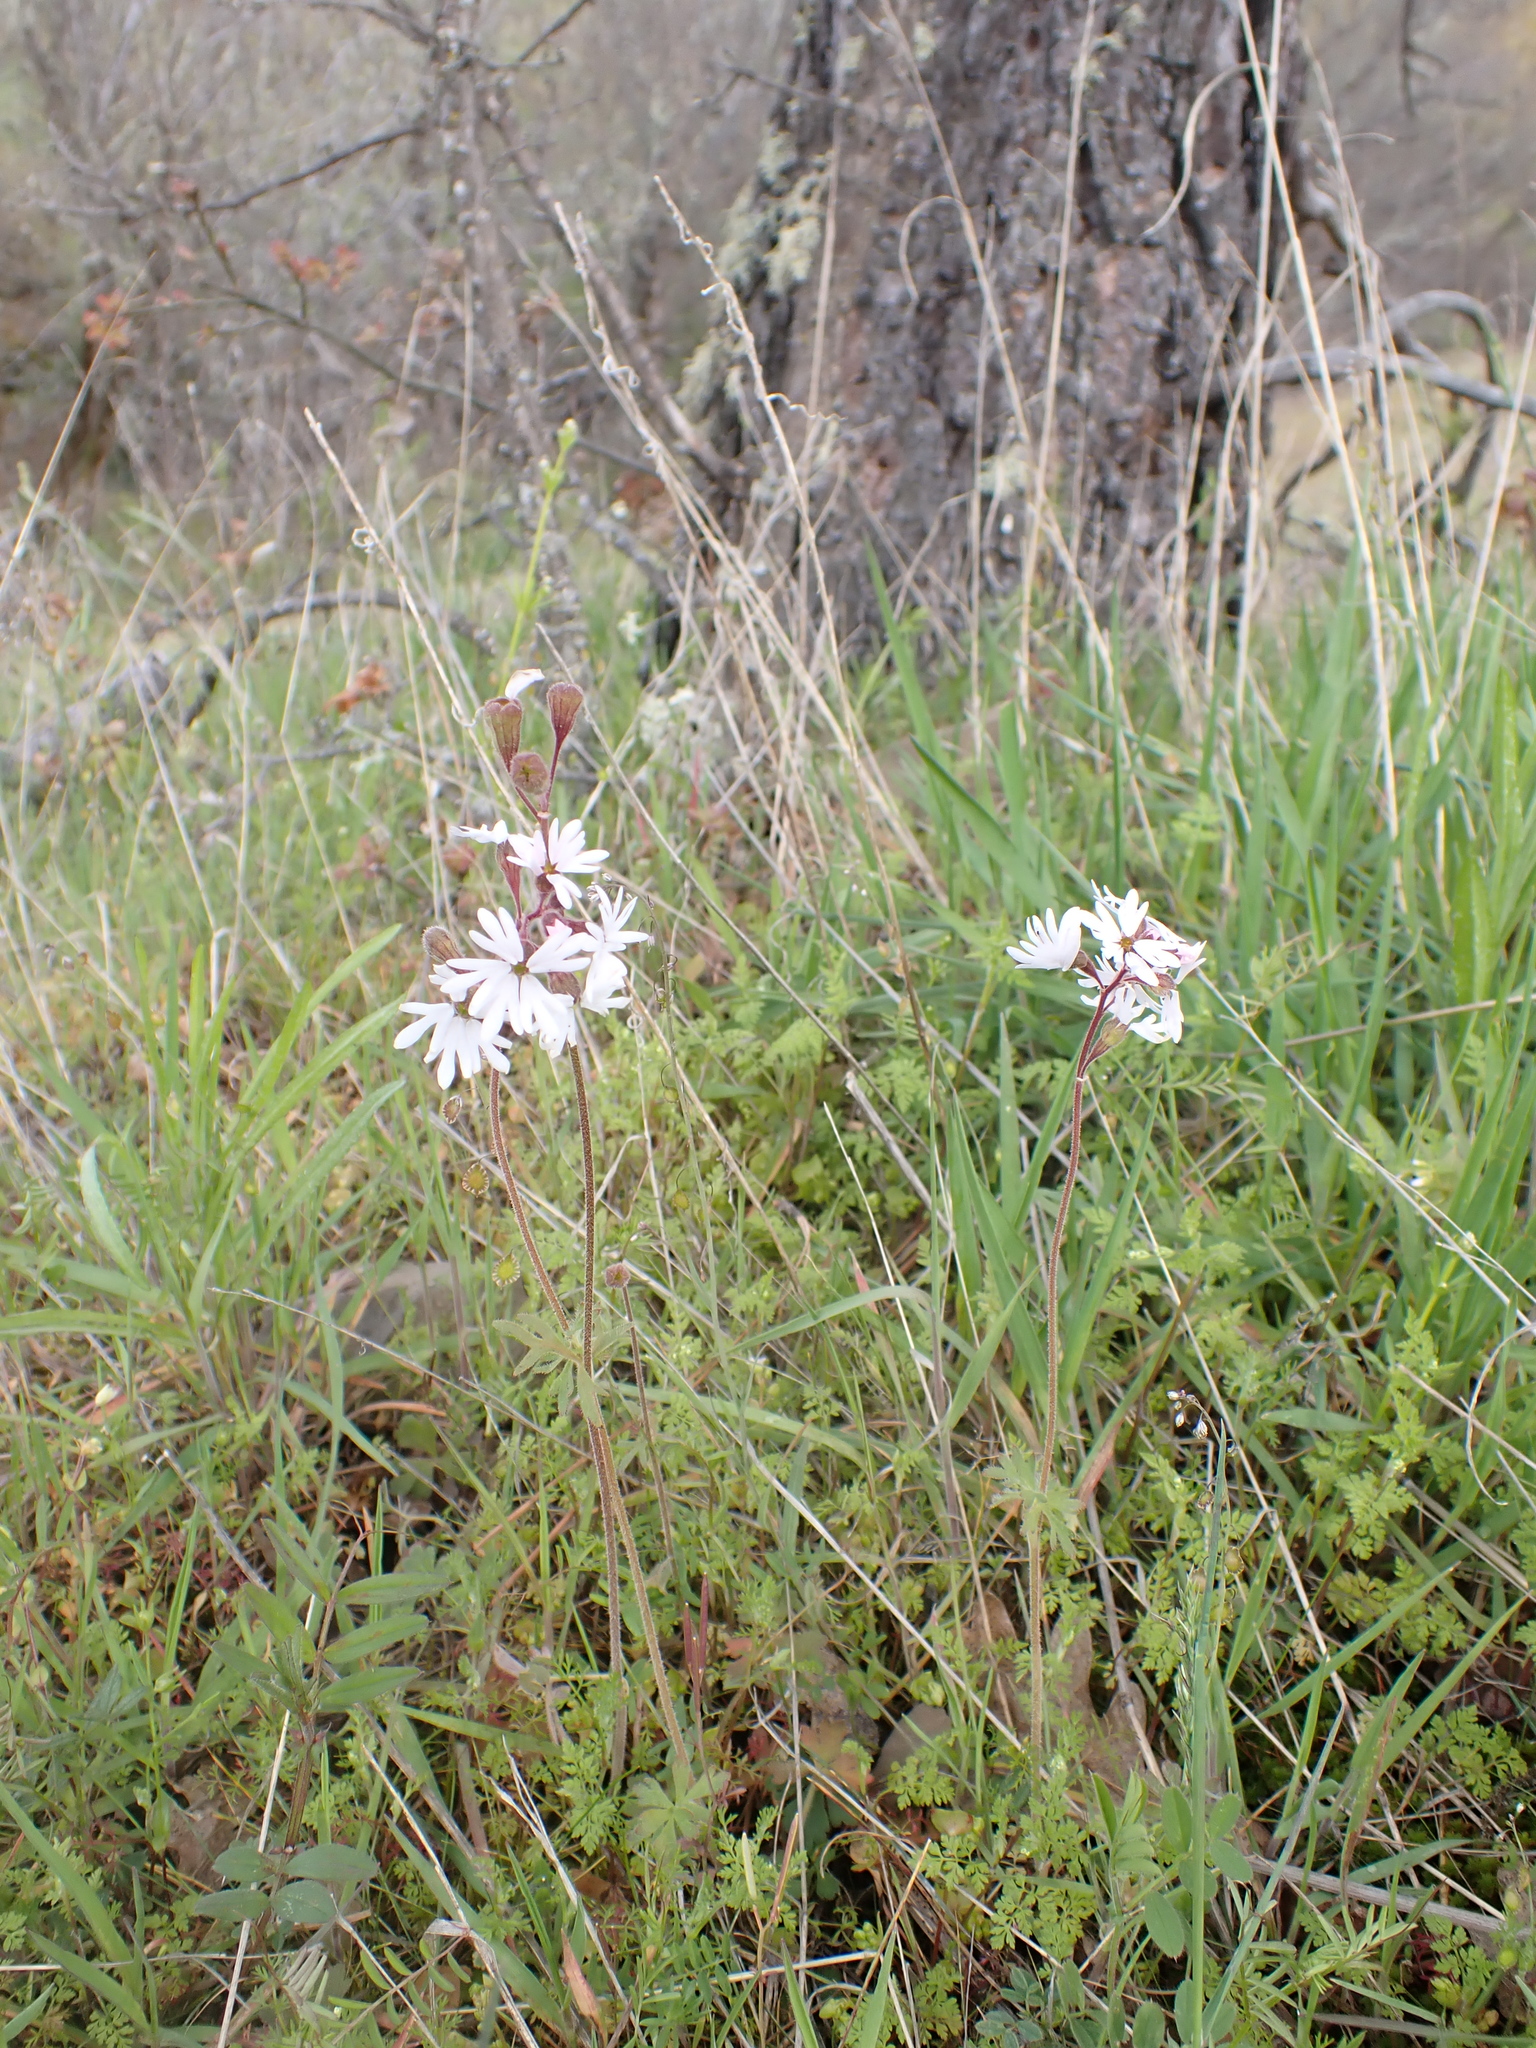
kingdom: Plantae
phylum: Tracheophyta
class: Magnoliopsida
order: Saxifragales
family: Saxifragaceae
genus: Lithophragma
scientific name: Lithophragma parviflorum
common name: Small-flowered fringe-cup
